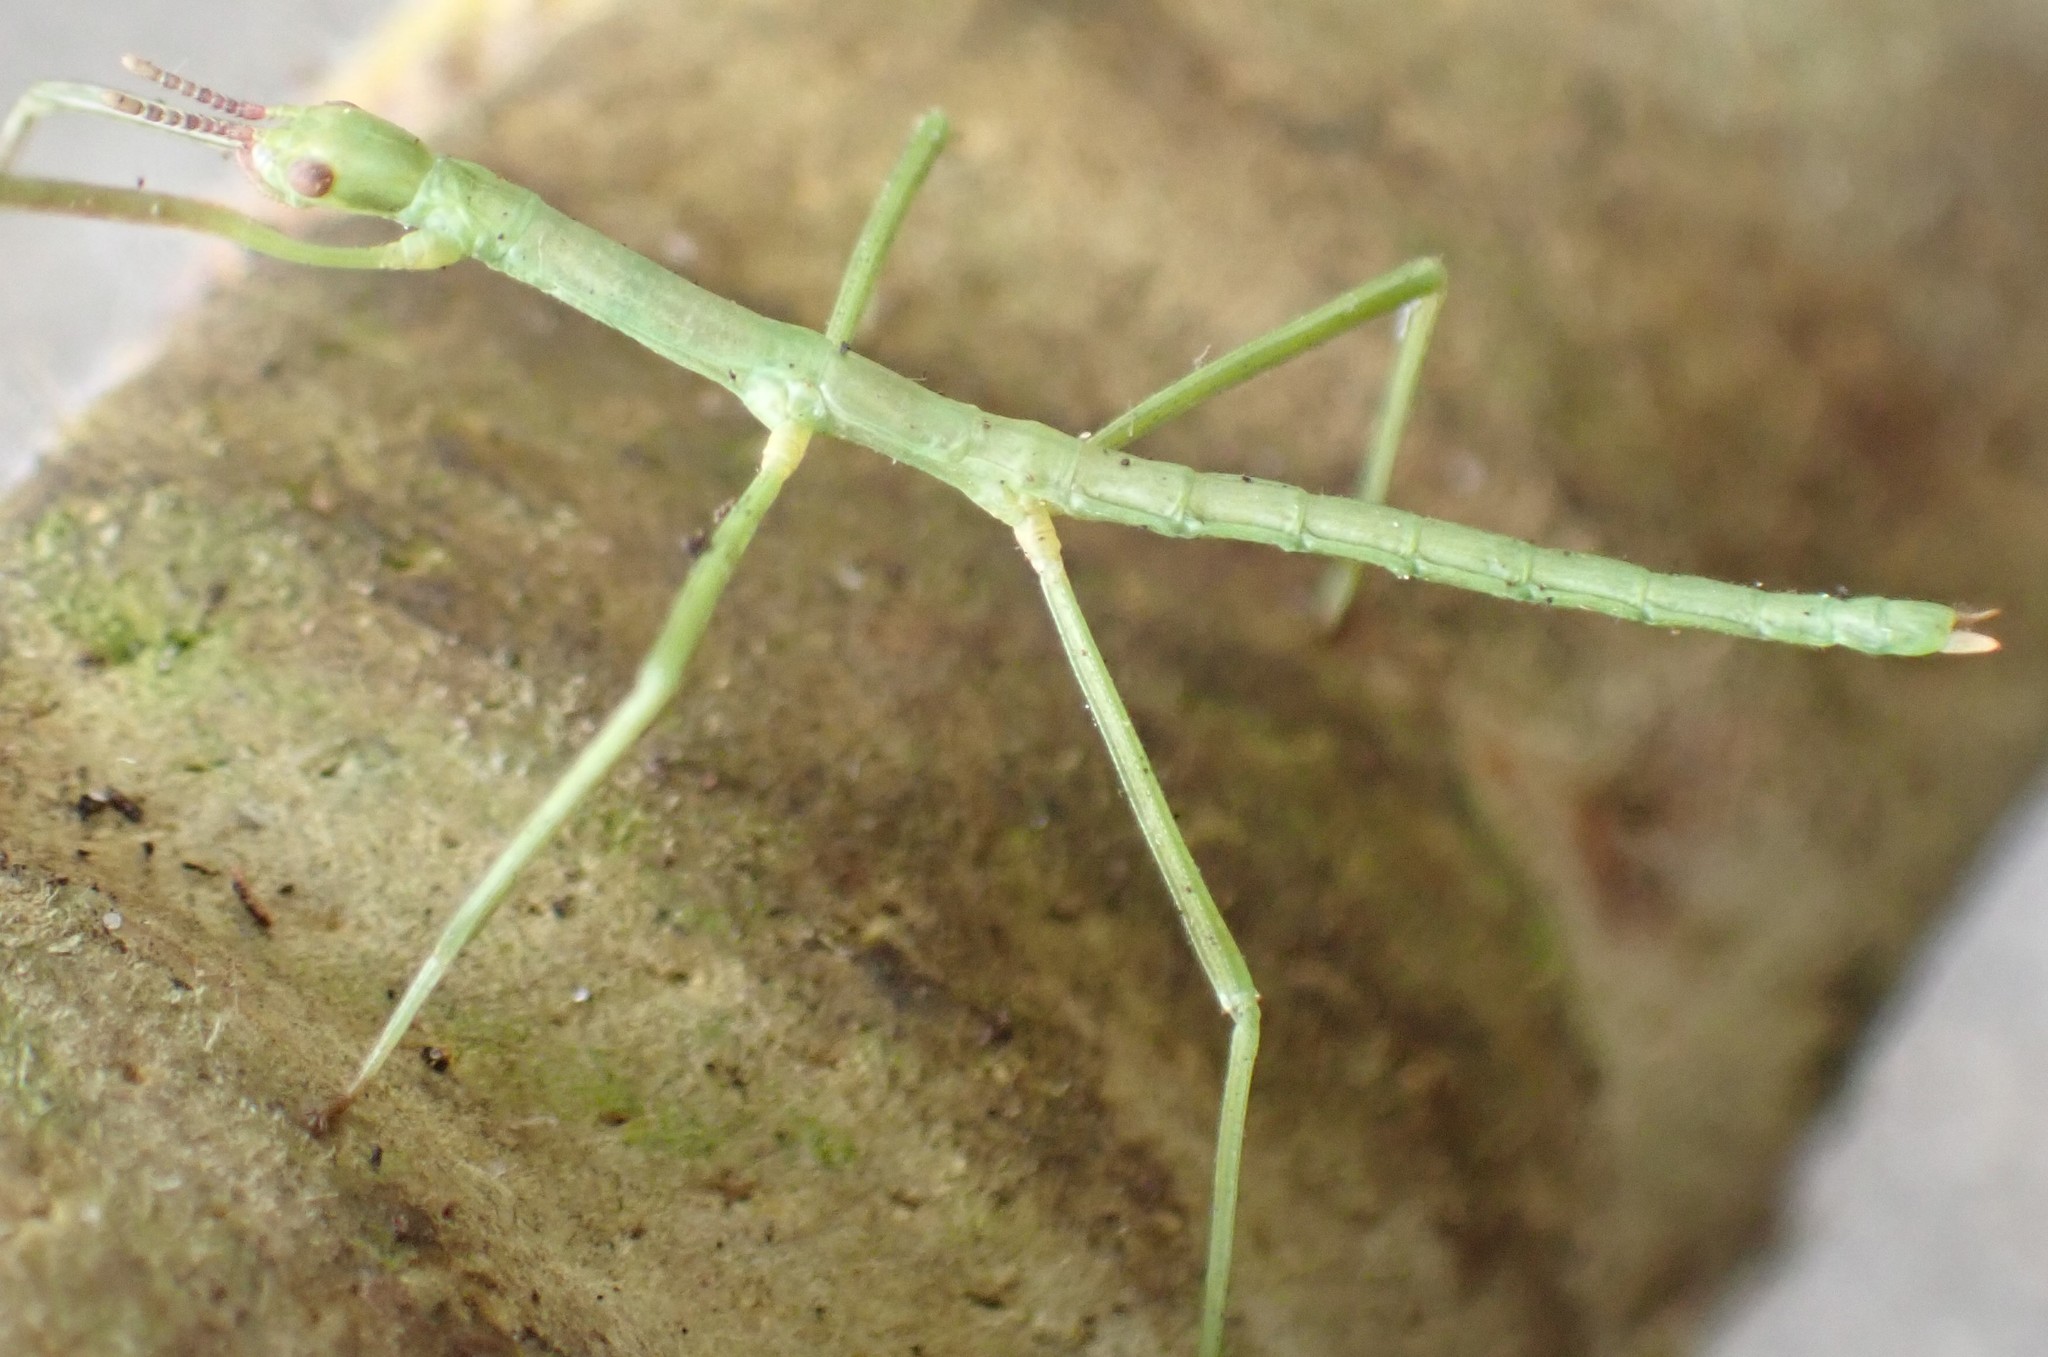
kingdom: Animalia
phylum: Arthropoda
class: Insecta
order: Phasmida
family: Phasmatidae
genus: Ctenomorpha
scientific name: Ctenomorpha marginipennis
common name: Margined-winged stick-insect
